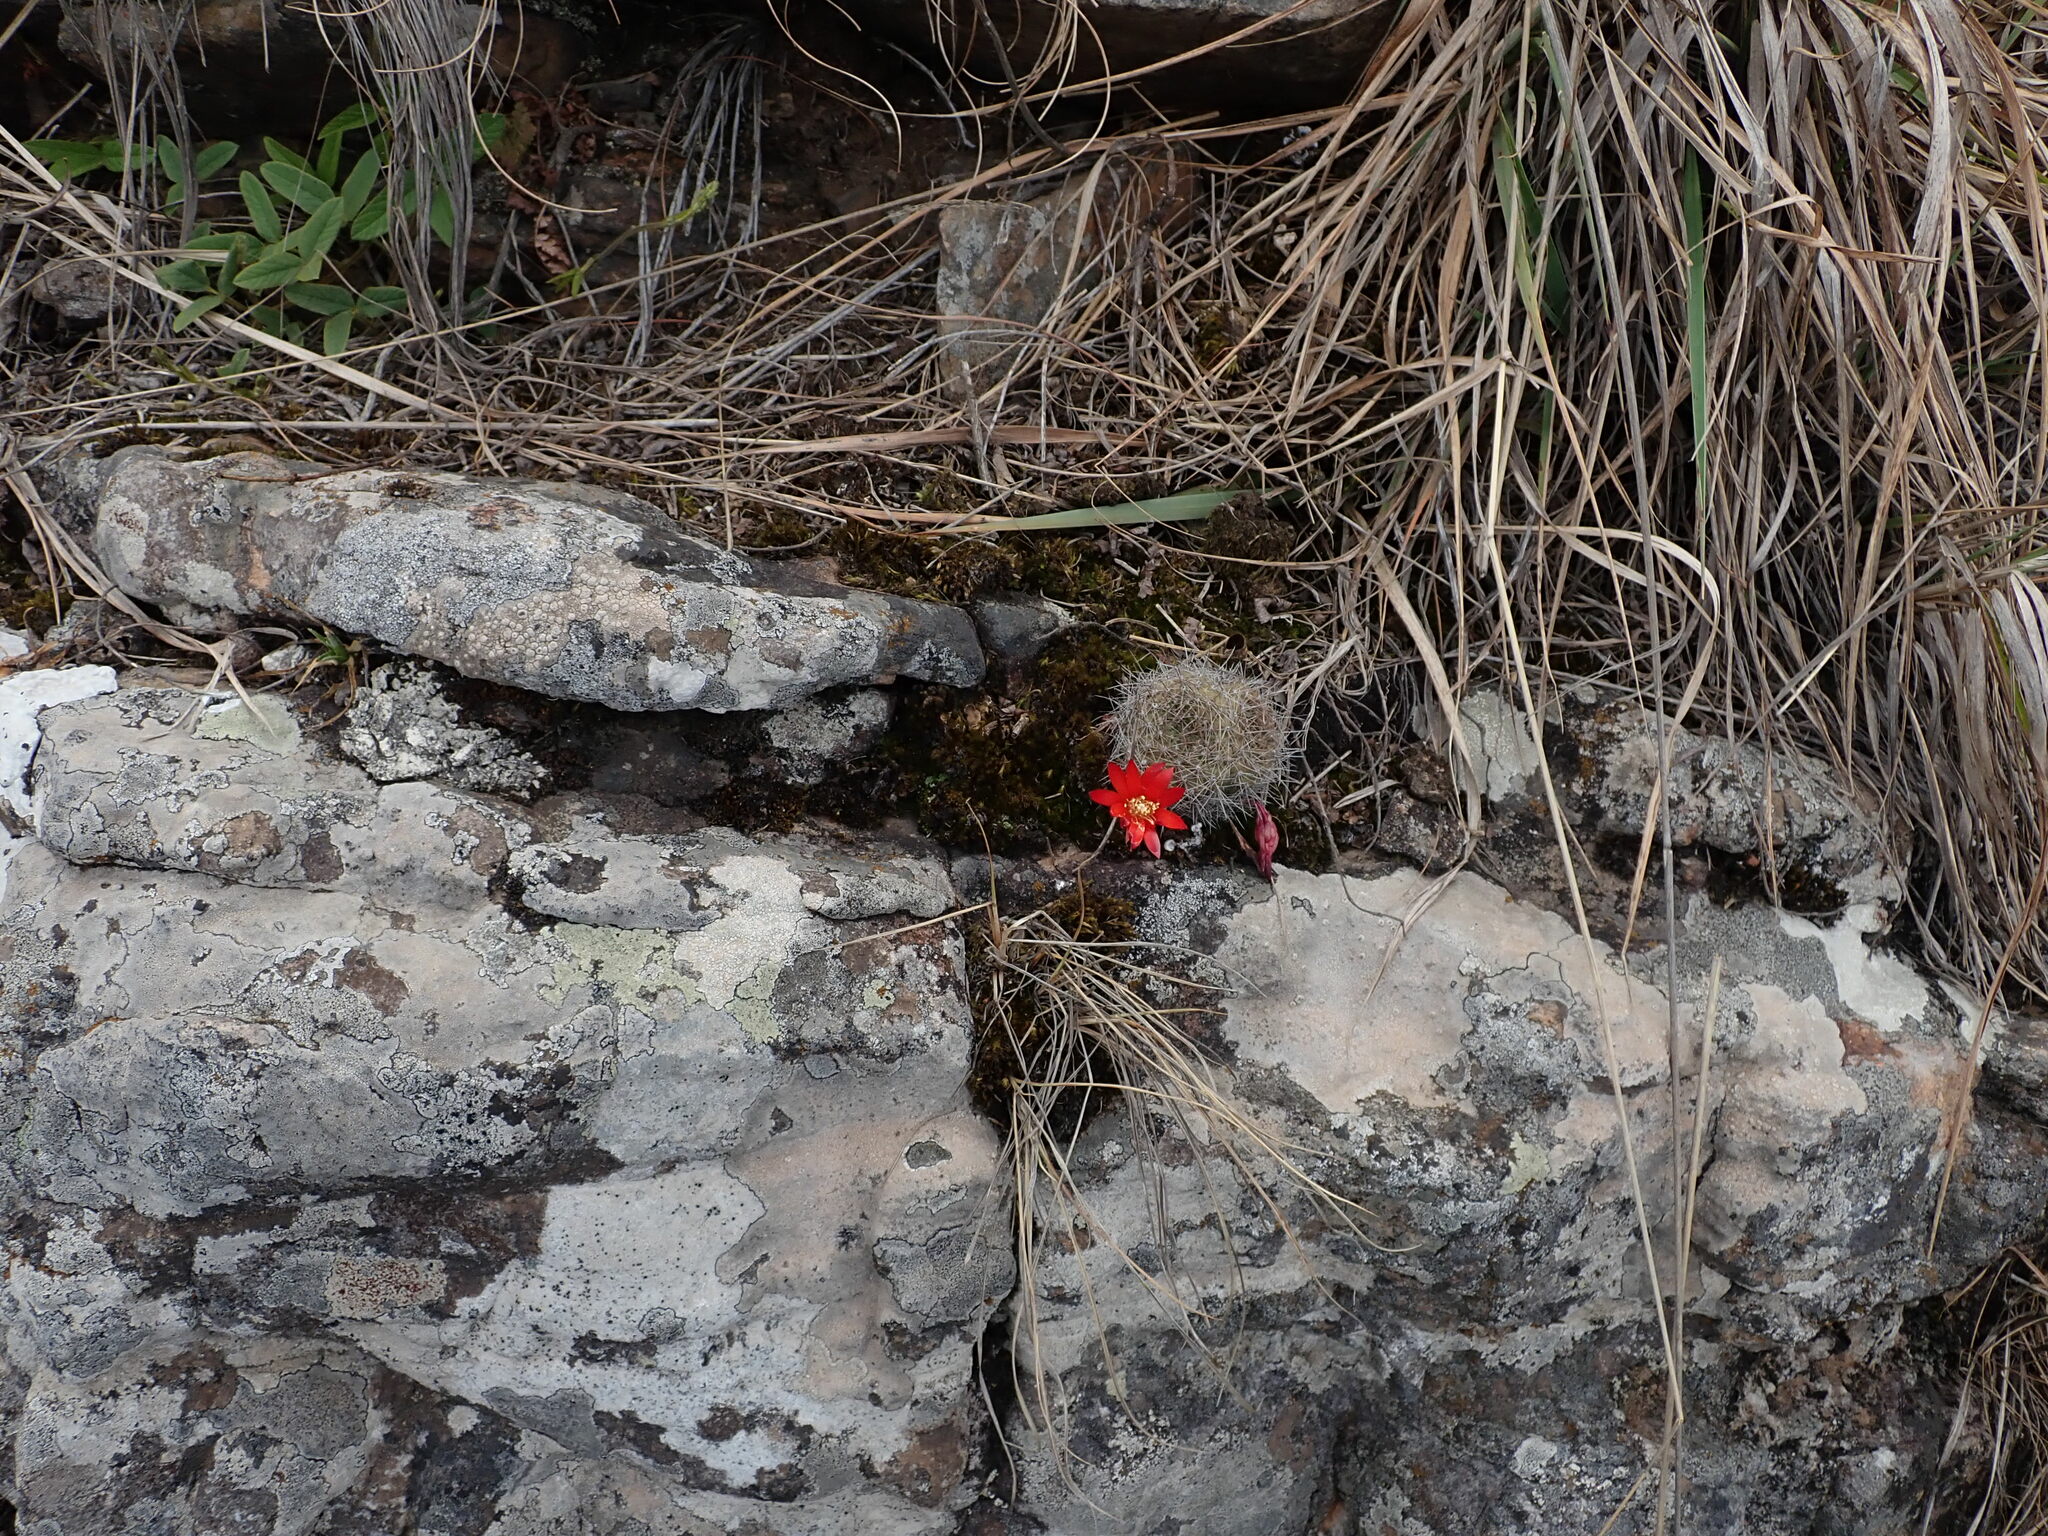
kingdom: Plantae
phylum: Tracheophyta
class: Magnoliopsida
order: Caryophyllales
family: Cactaceae
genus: Aylostera
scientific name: Aylostera deminuta
